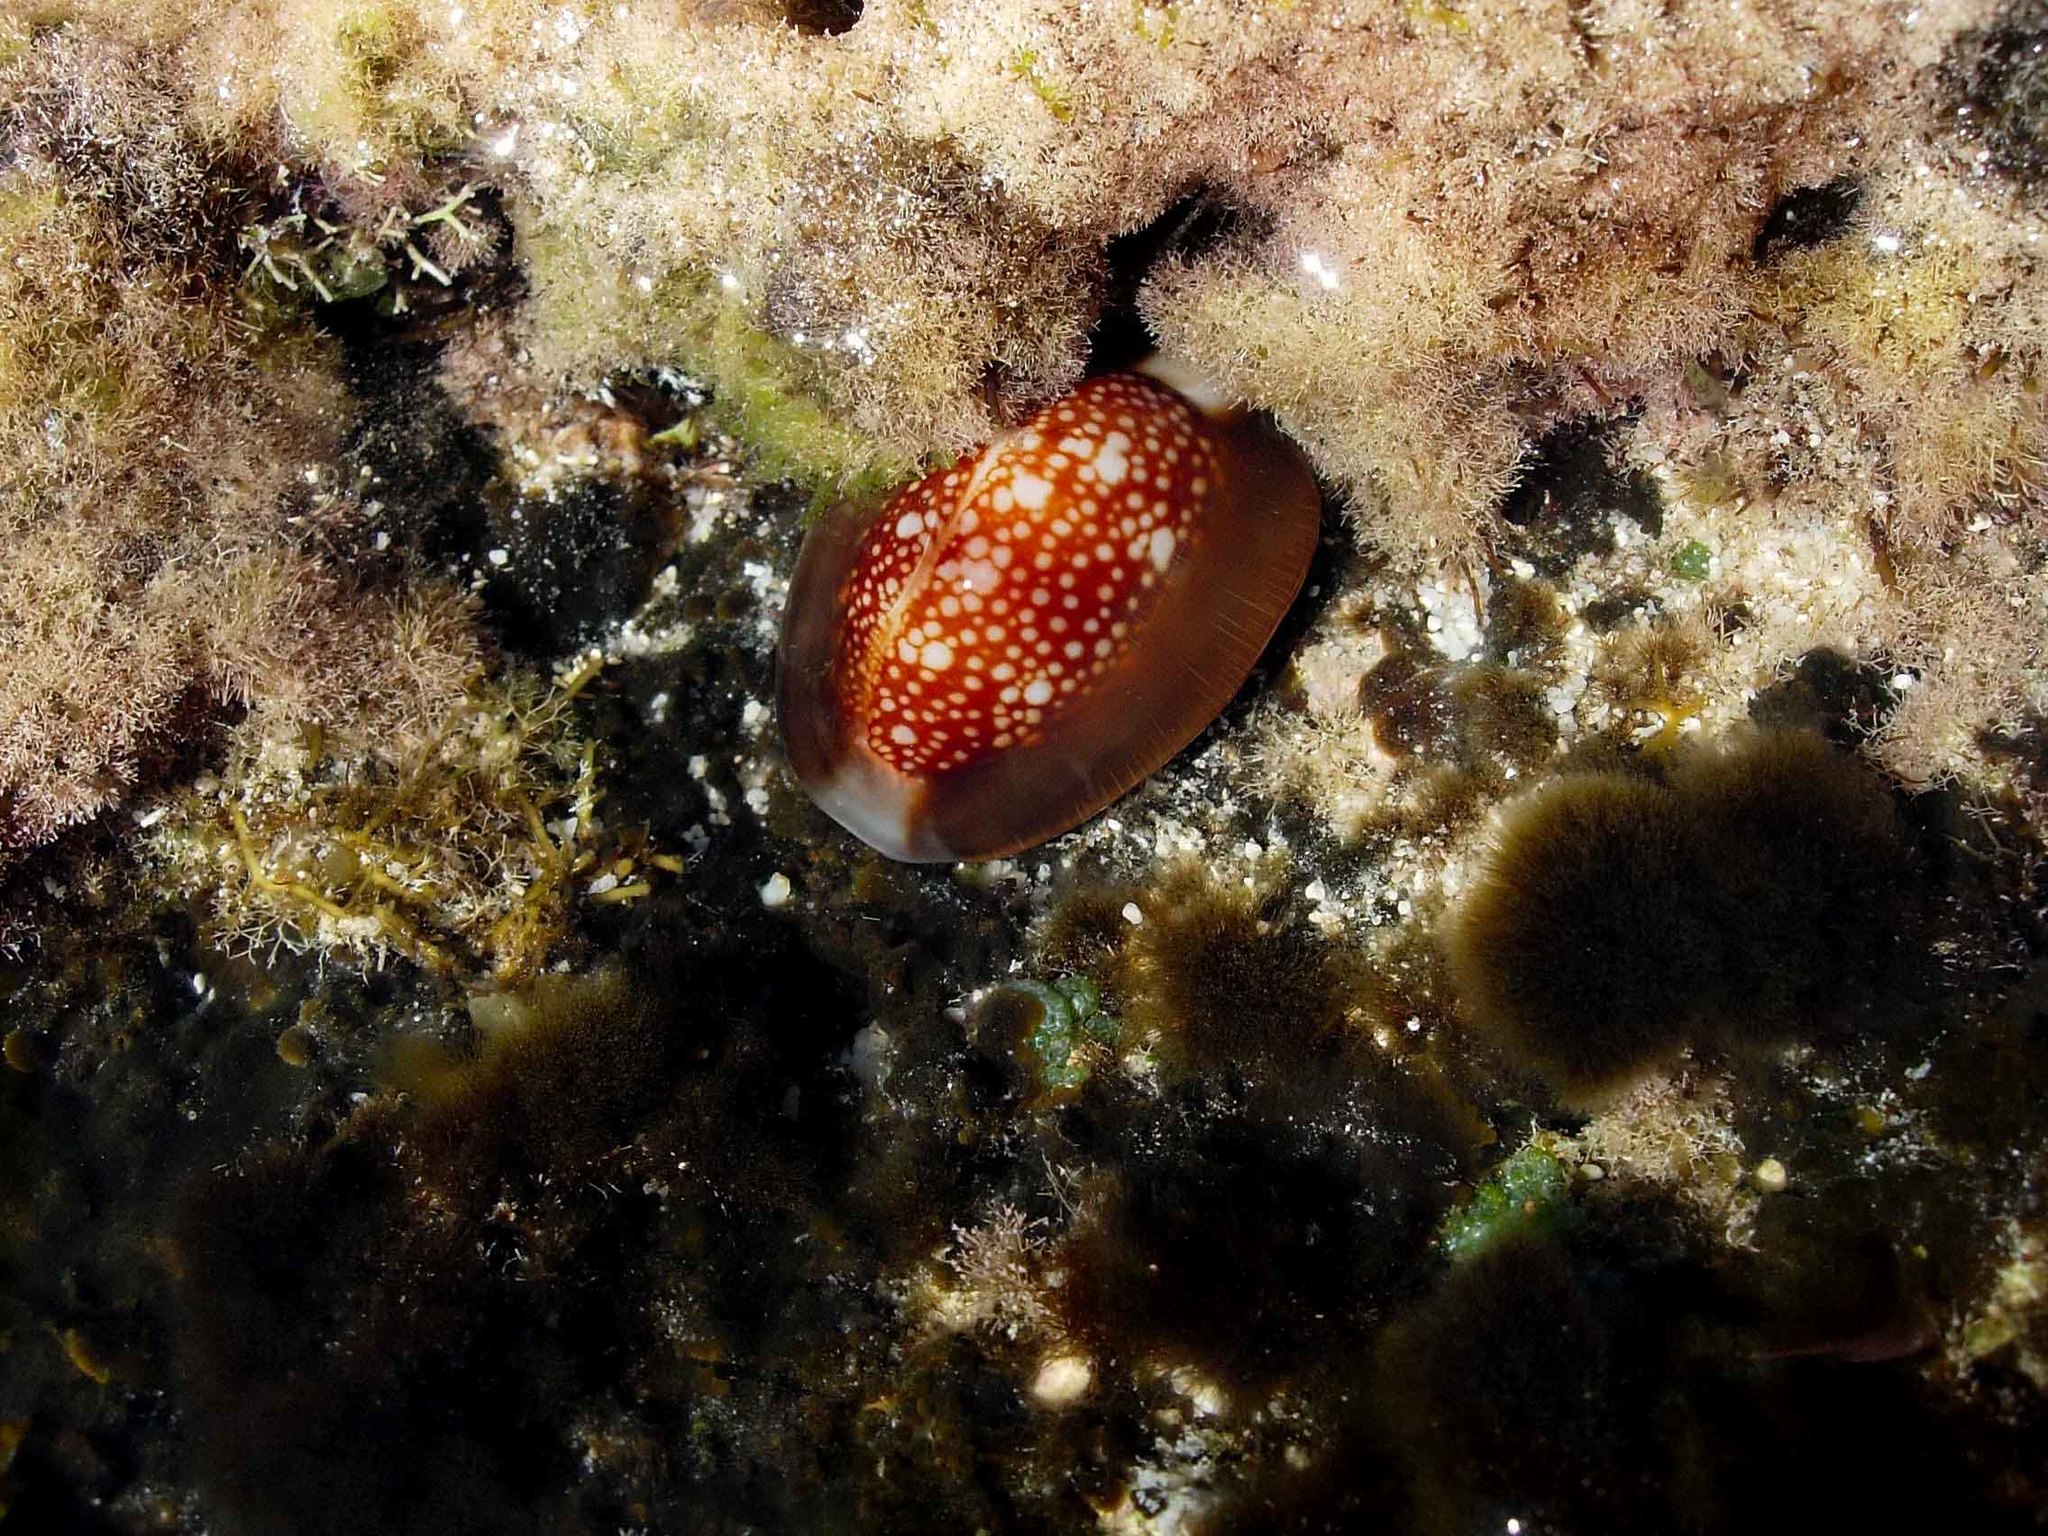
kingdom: Animalia
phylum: Mollusca
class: Gastropoda
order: Littorinimorpha
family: Cypraeidae
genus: Monetaria
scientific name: Monetaria caputserpentis
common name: Serpent's head cowrie
